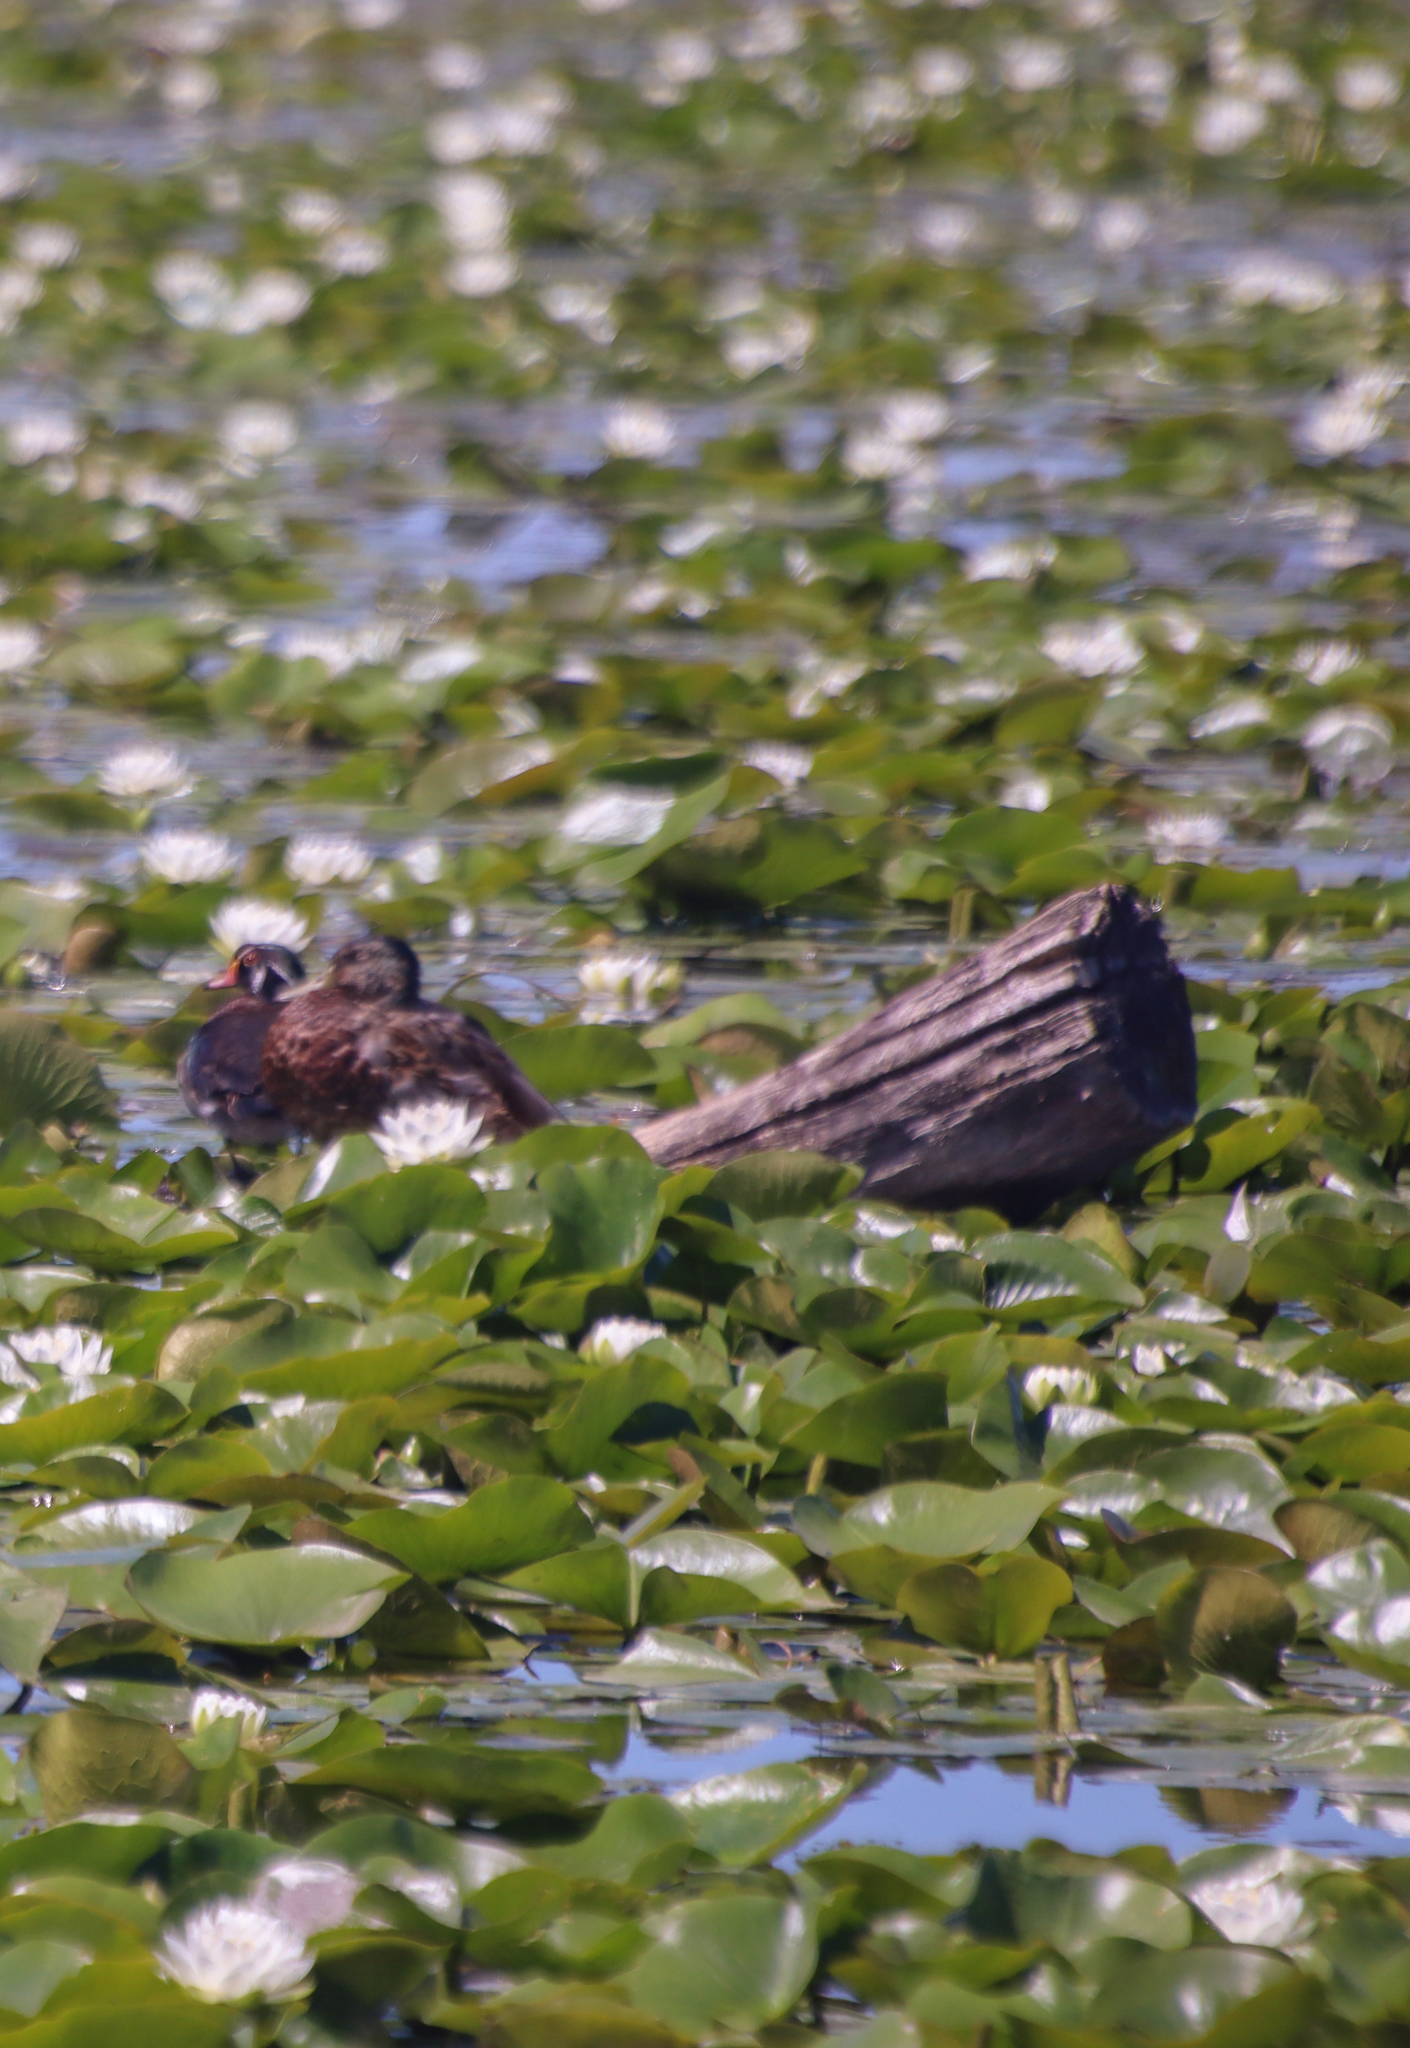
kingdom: Animalia
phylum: Chordata
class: Aves
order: Anseriformes
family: Anatidae
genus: Aix
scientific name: Aix sponsa
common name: Wood duck
